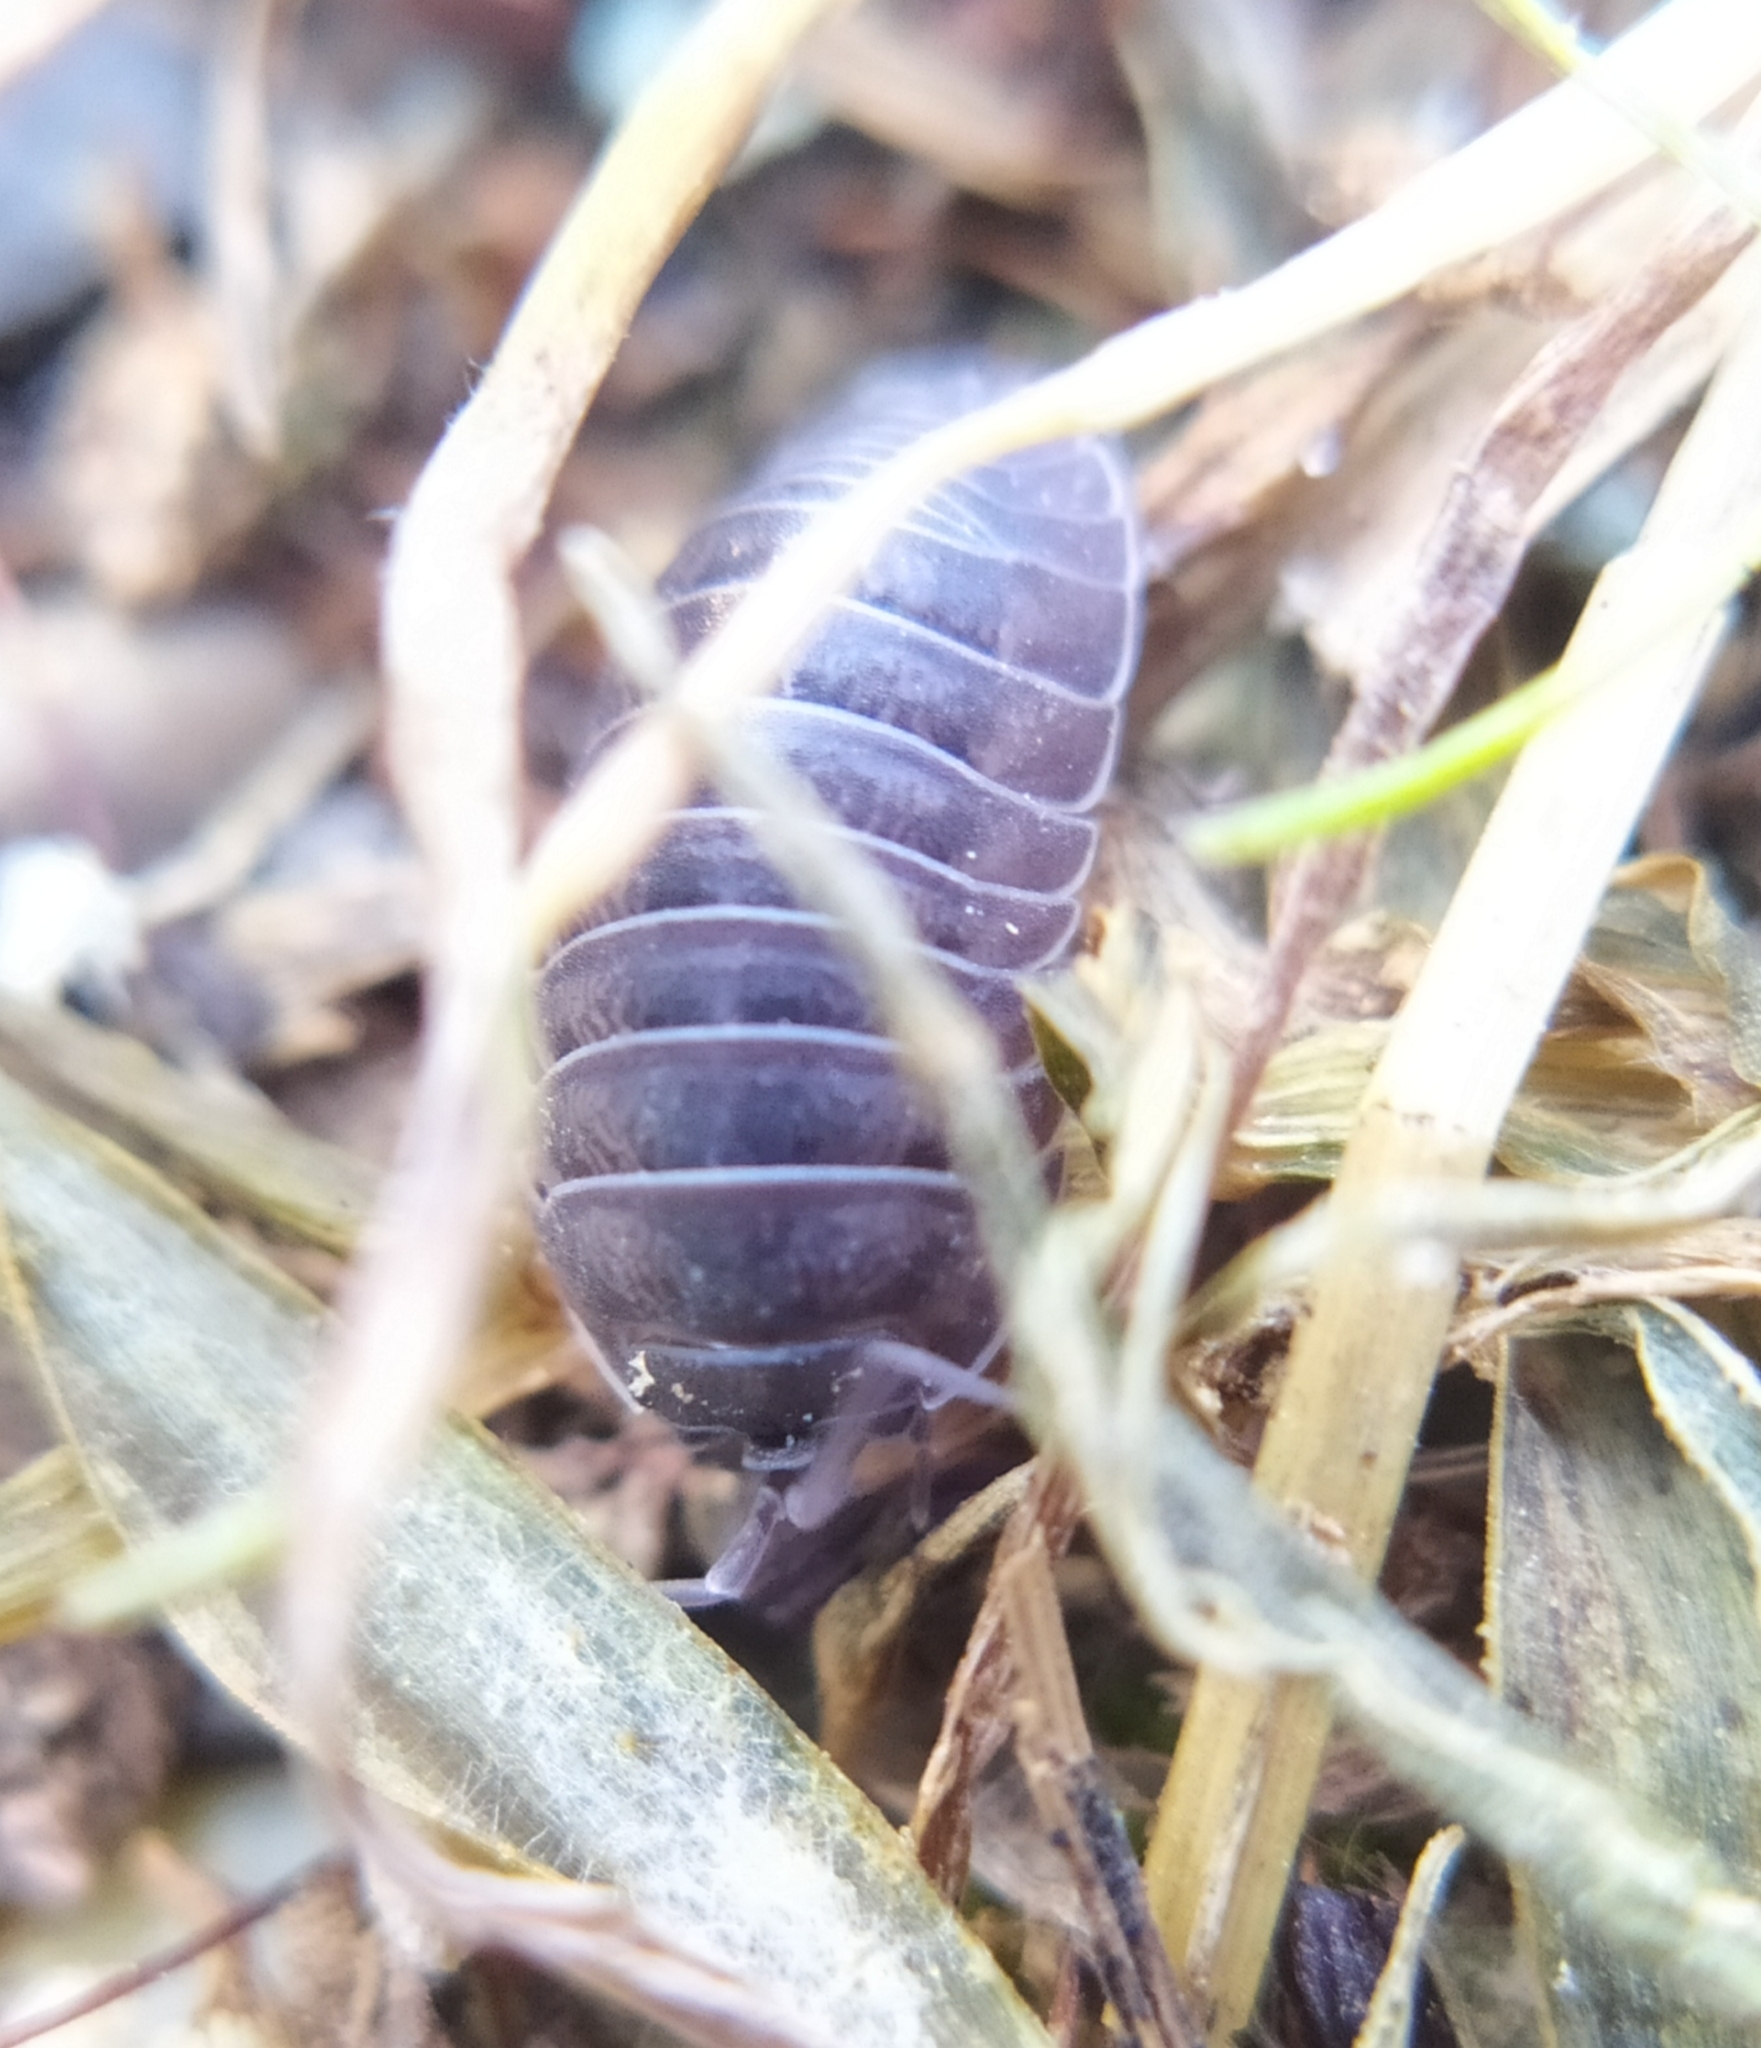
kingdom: Animalia
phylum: Arthropoda
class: Malacostraca
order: Isopoda
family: Armadillidiidae
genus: Armadillidium
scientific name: Armadillidium nasatum
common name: Isopod
